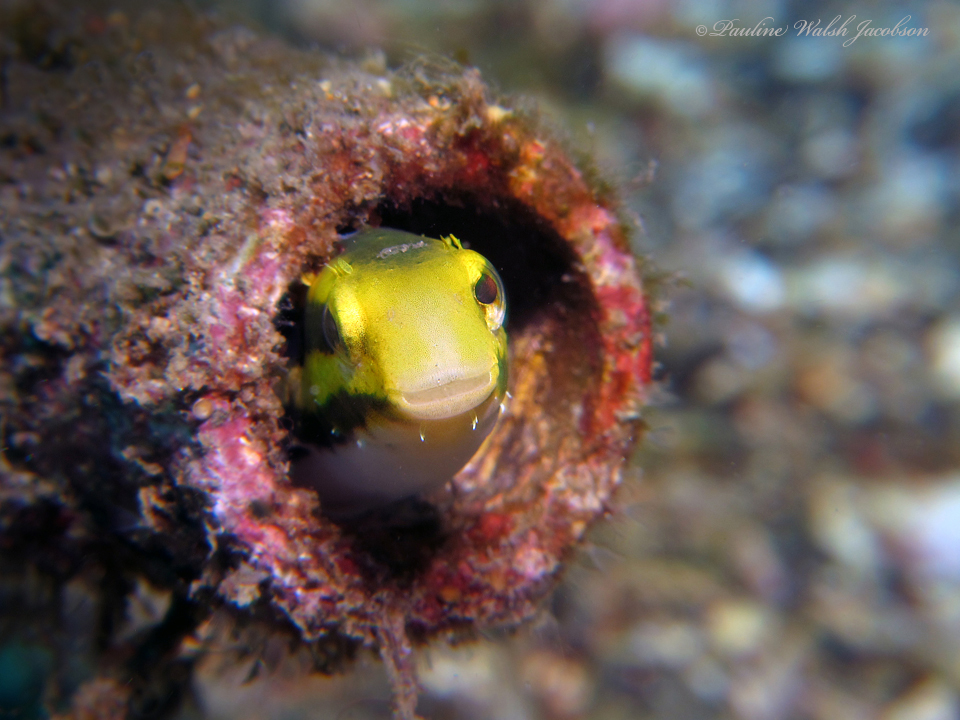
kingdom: Animalia
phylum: Chordata
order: Perciformes
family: Blenniidae
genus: Petroscirtes
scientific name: Petroscirtes breviceps
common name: Short-head sabretooth blenny
